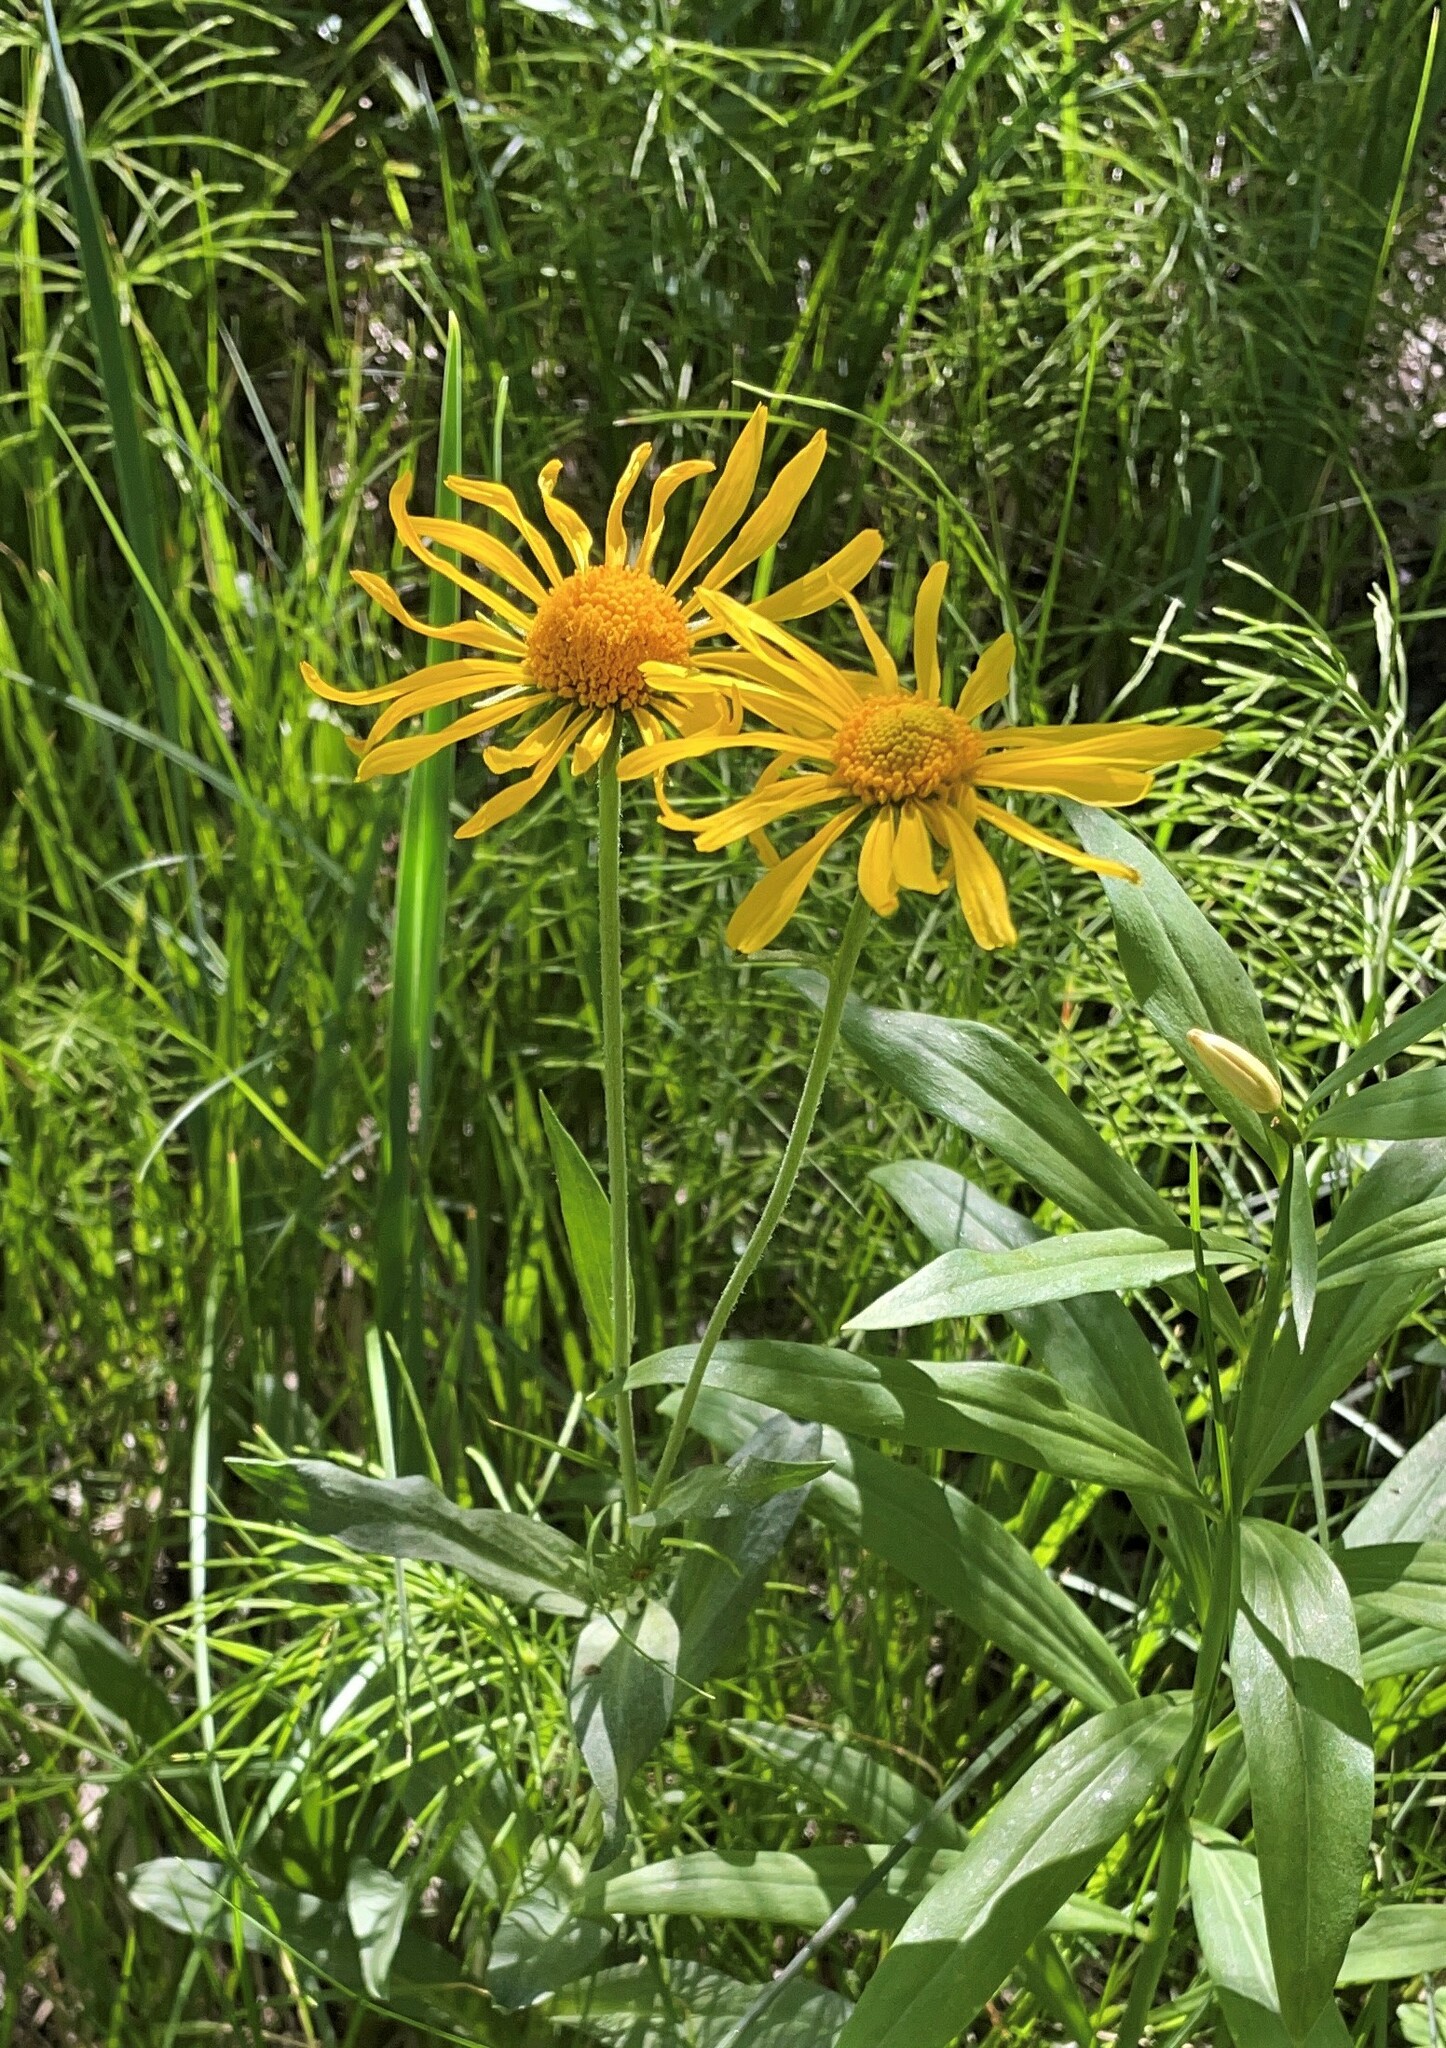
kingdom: Plantae
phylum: Tracheophyta
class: Magnoliopsida
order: Asterales
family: Asteraceae
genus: Hymenoxys
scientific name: Hymenoxys hoopesii
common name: Orange-sneezeweed
